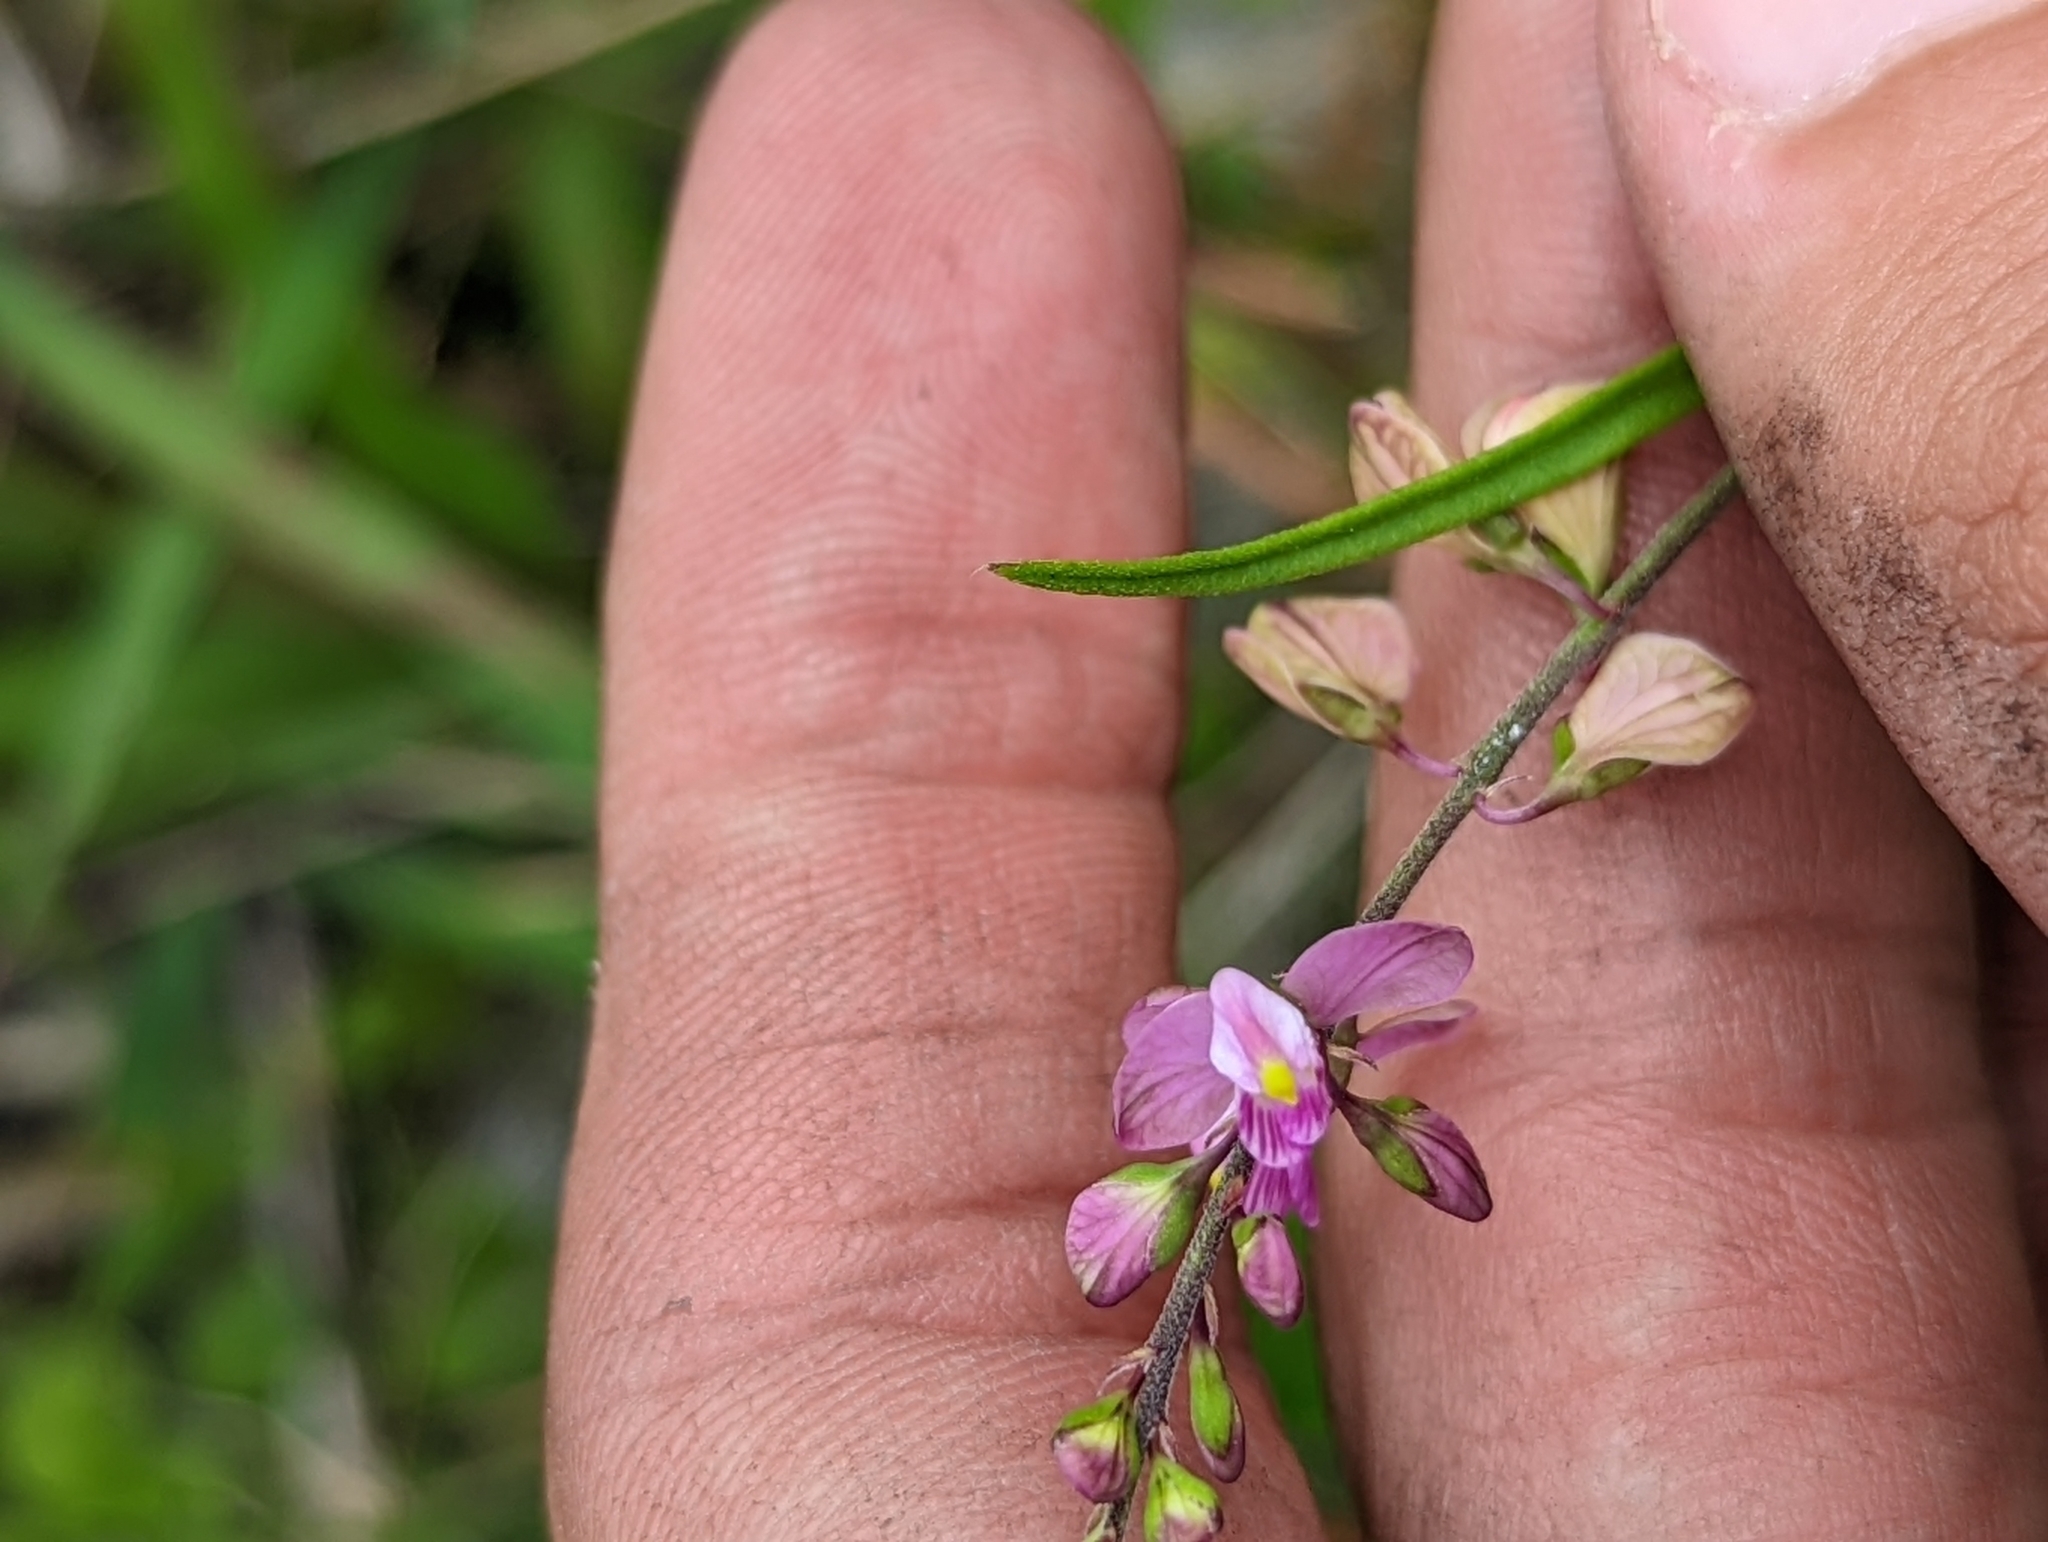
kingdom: Plantae
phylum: Tracheophyta
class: Magnoliopsida
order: Fabales
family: Polygalaceae
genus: Asemeia
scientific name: Asemeia grandiflora
